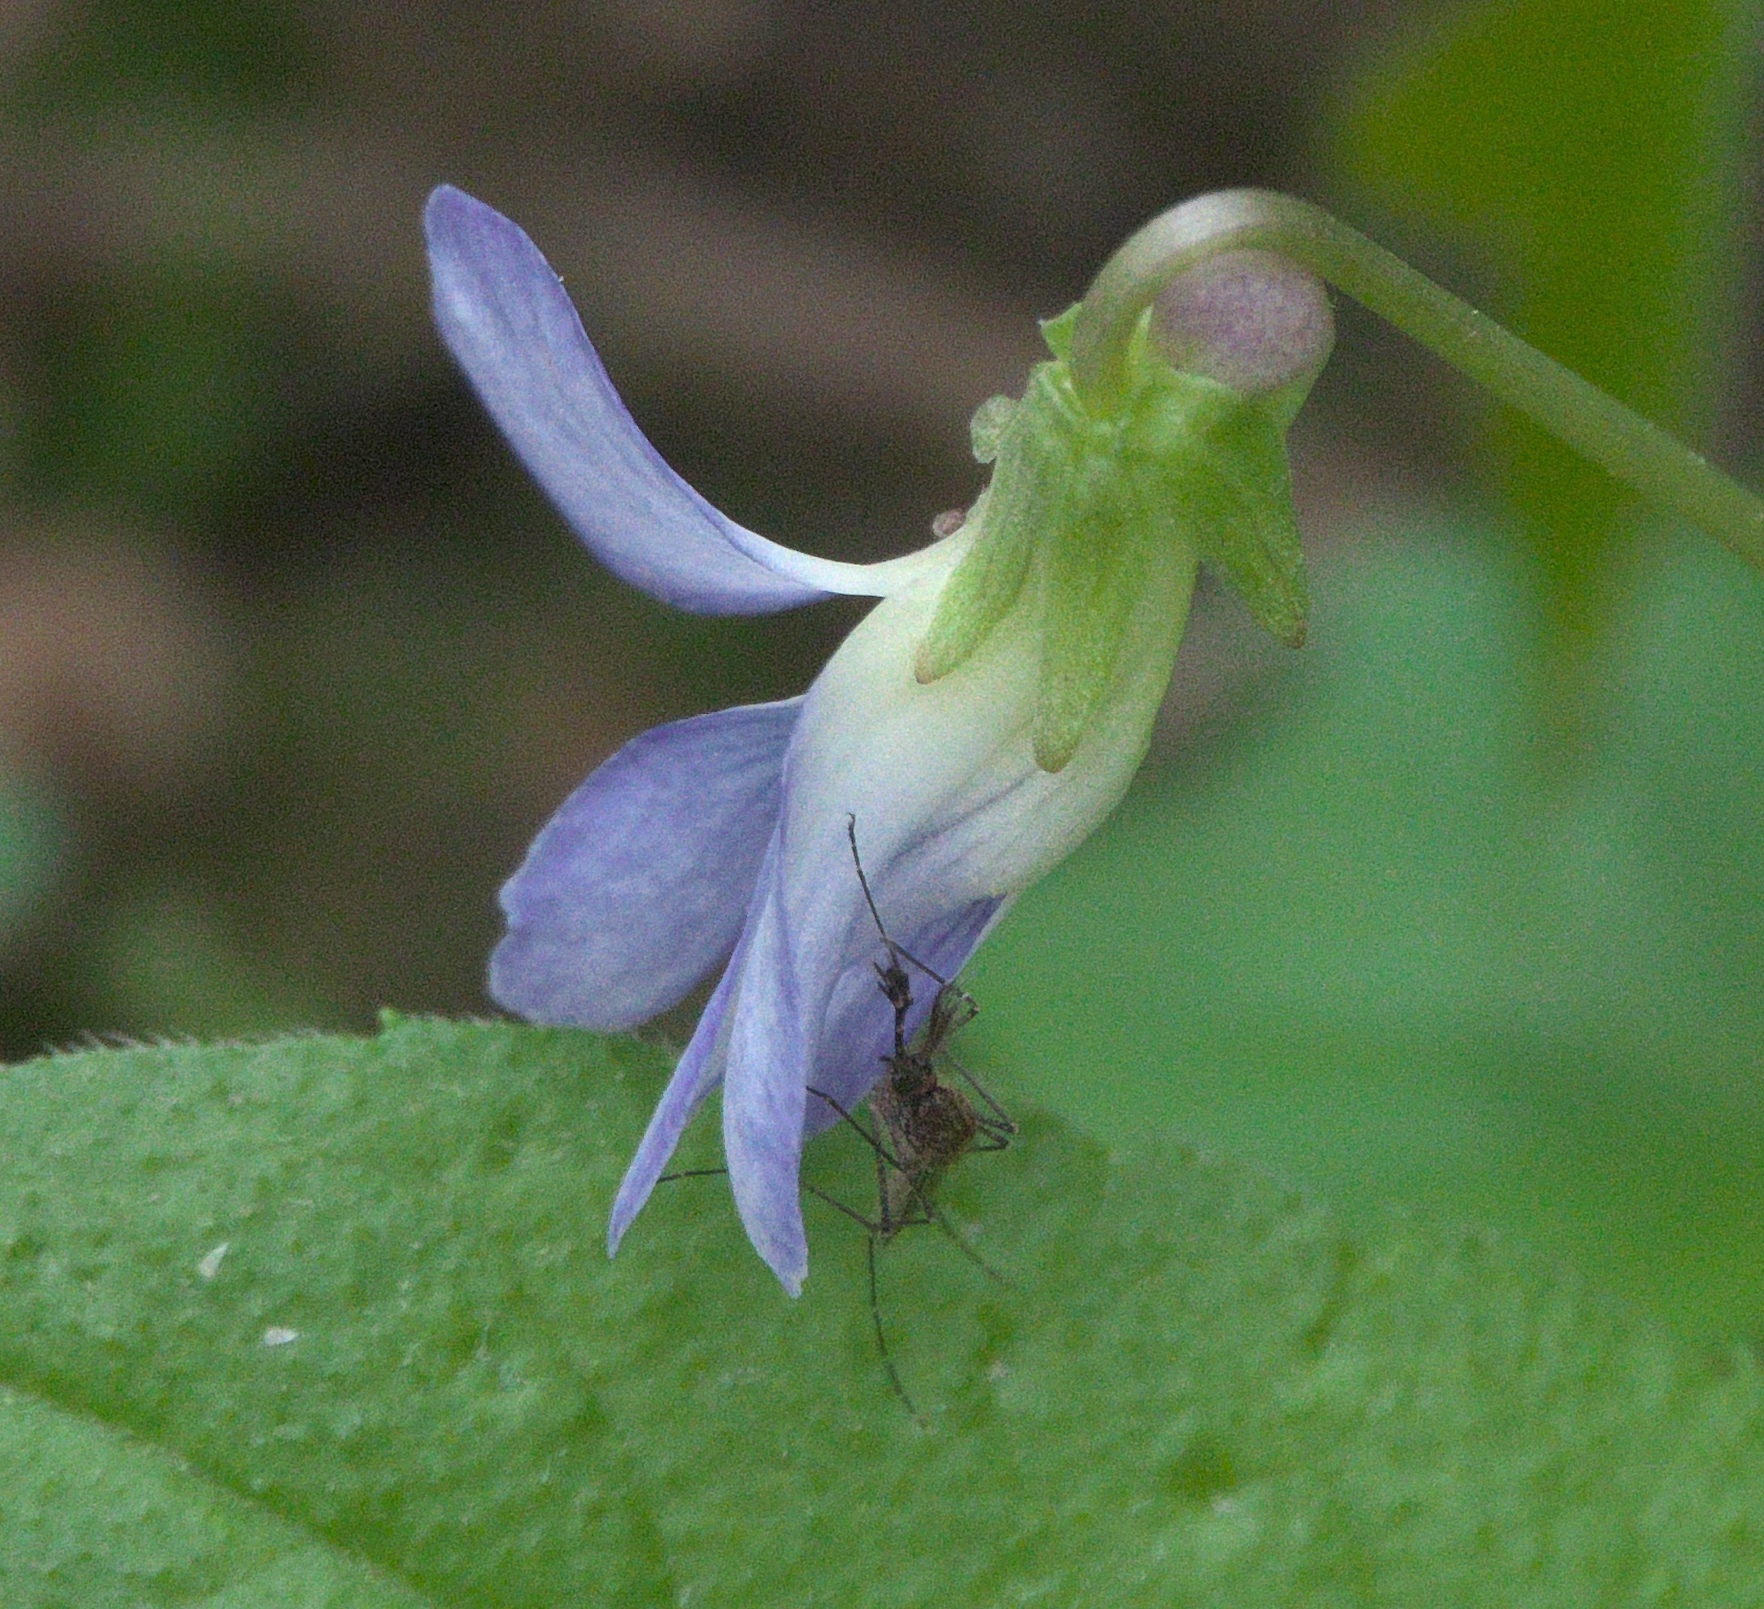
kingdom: Animalia
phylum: Arthropoda
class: Insecta
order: Diptera
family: Culicidae
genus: Aedes
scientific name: Aedes vexans
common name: Inland floodwater mosquito
